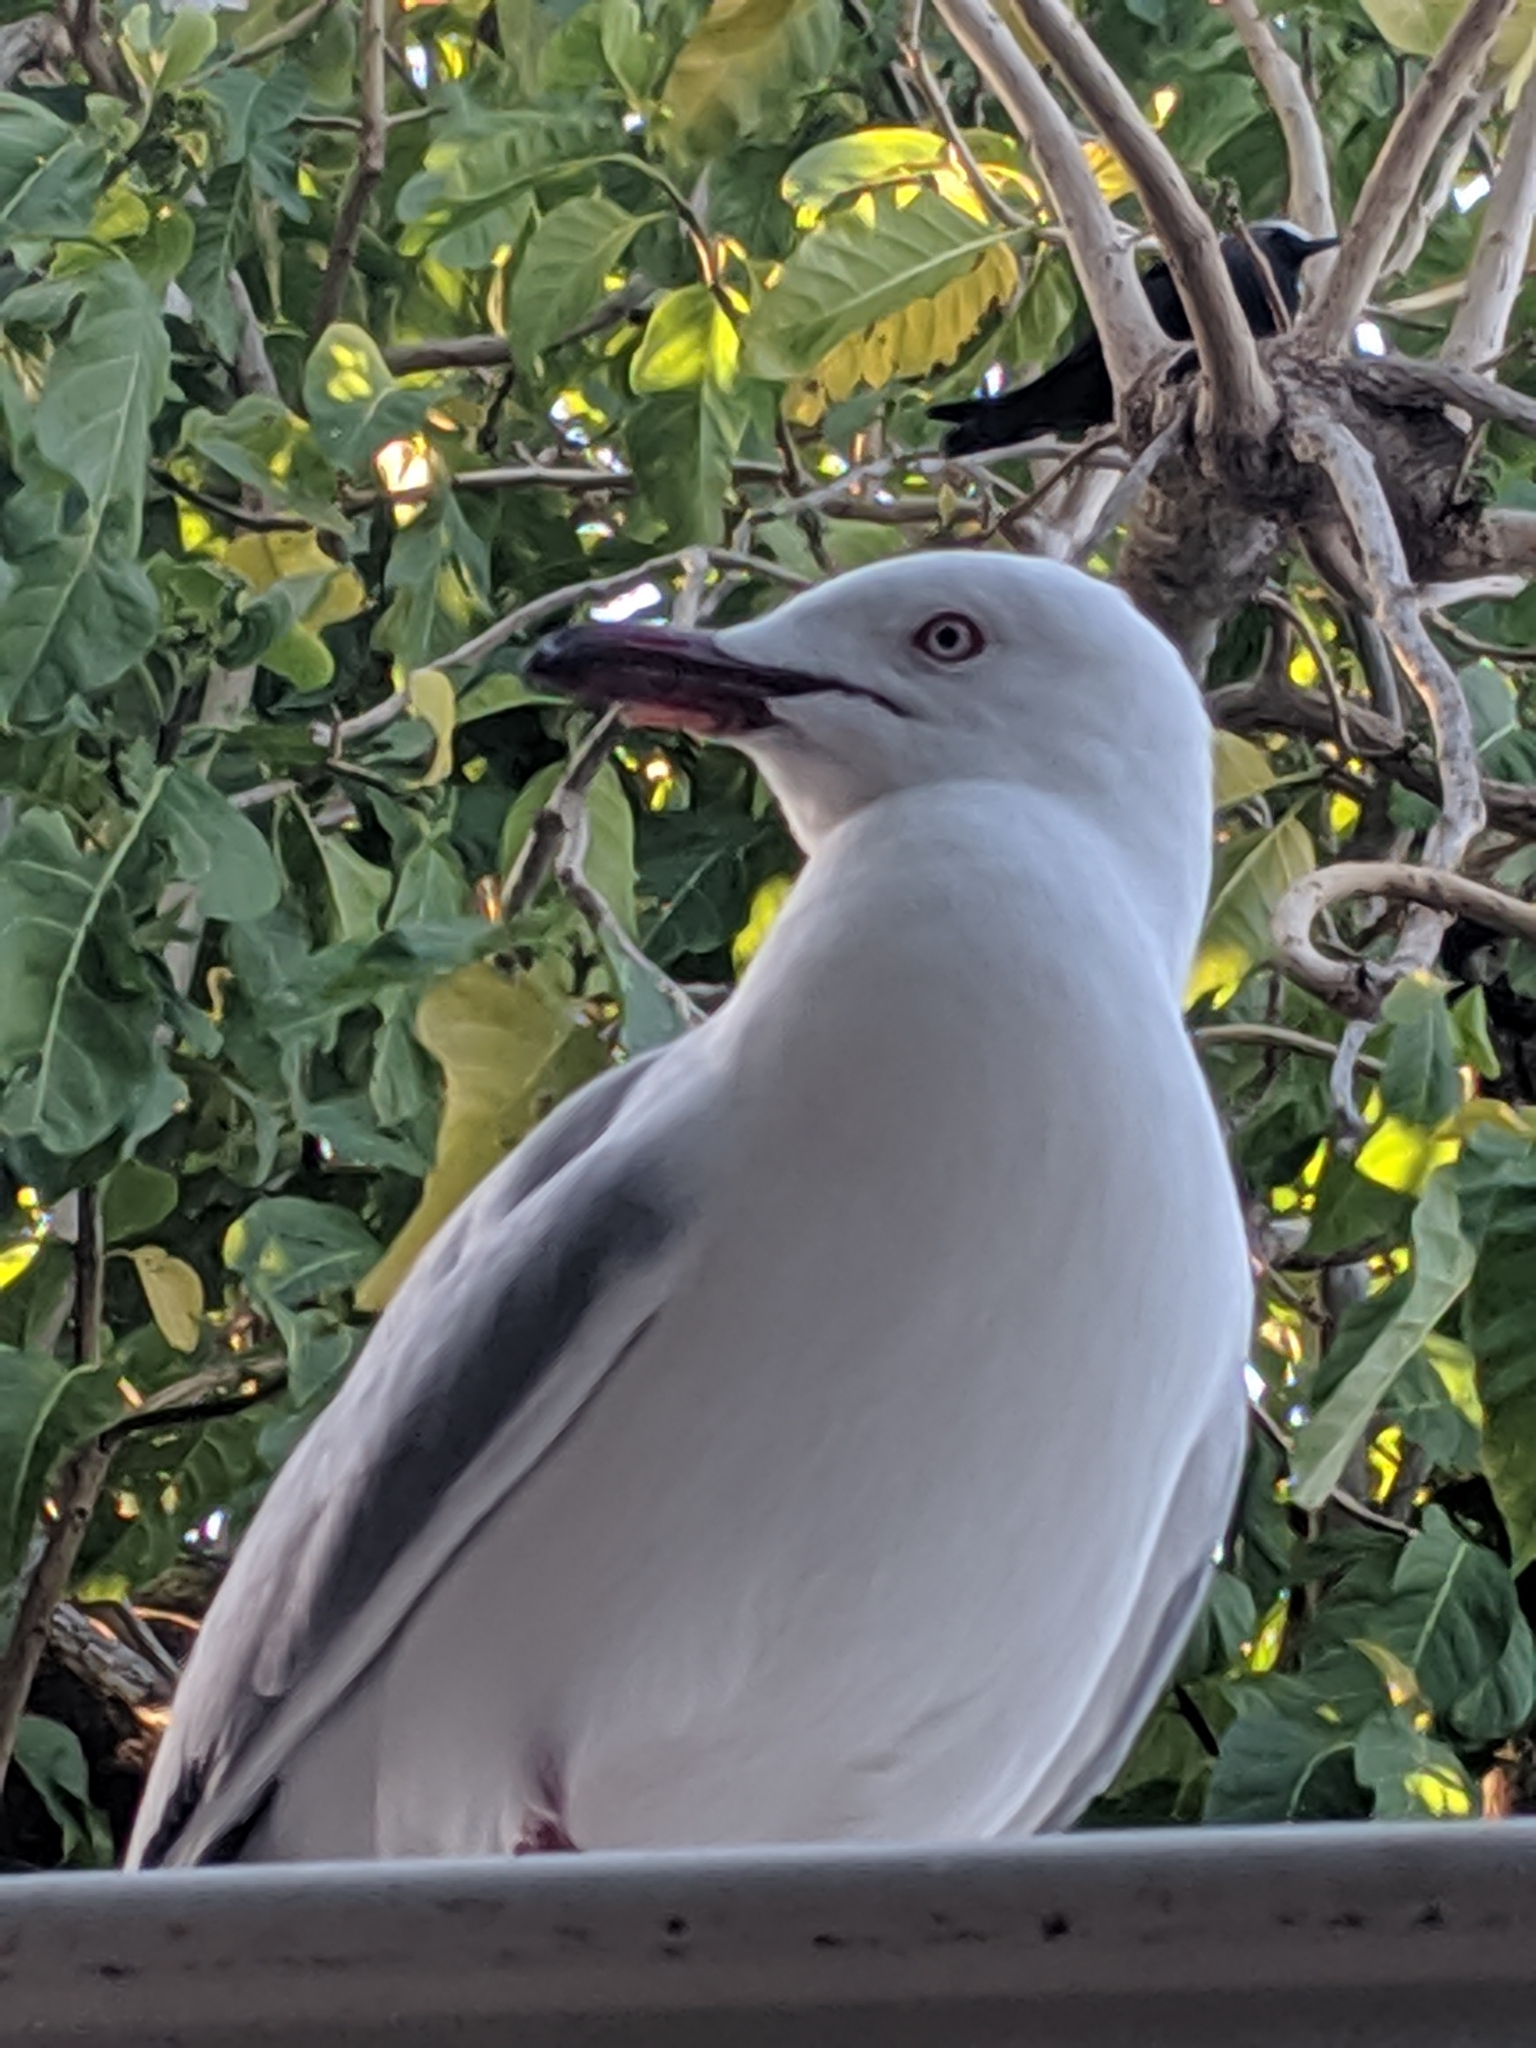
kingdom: Animalia
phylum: Chordata
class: Aves
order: Charadriiformes
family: Laridae
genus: Chroicocephalus
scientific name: Chroicocephalus novaehollandiae
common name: Silver gull
